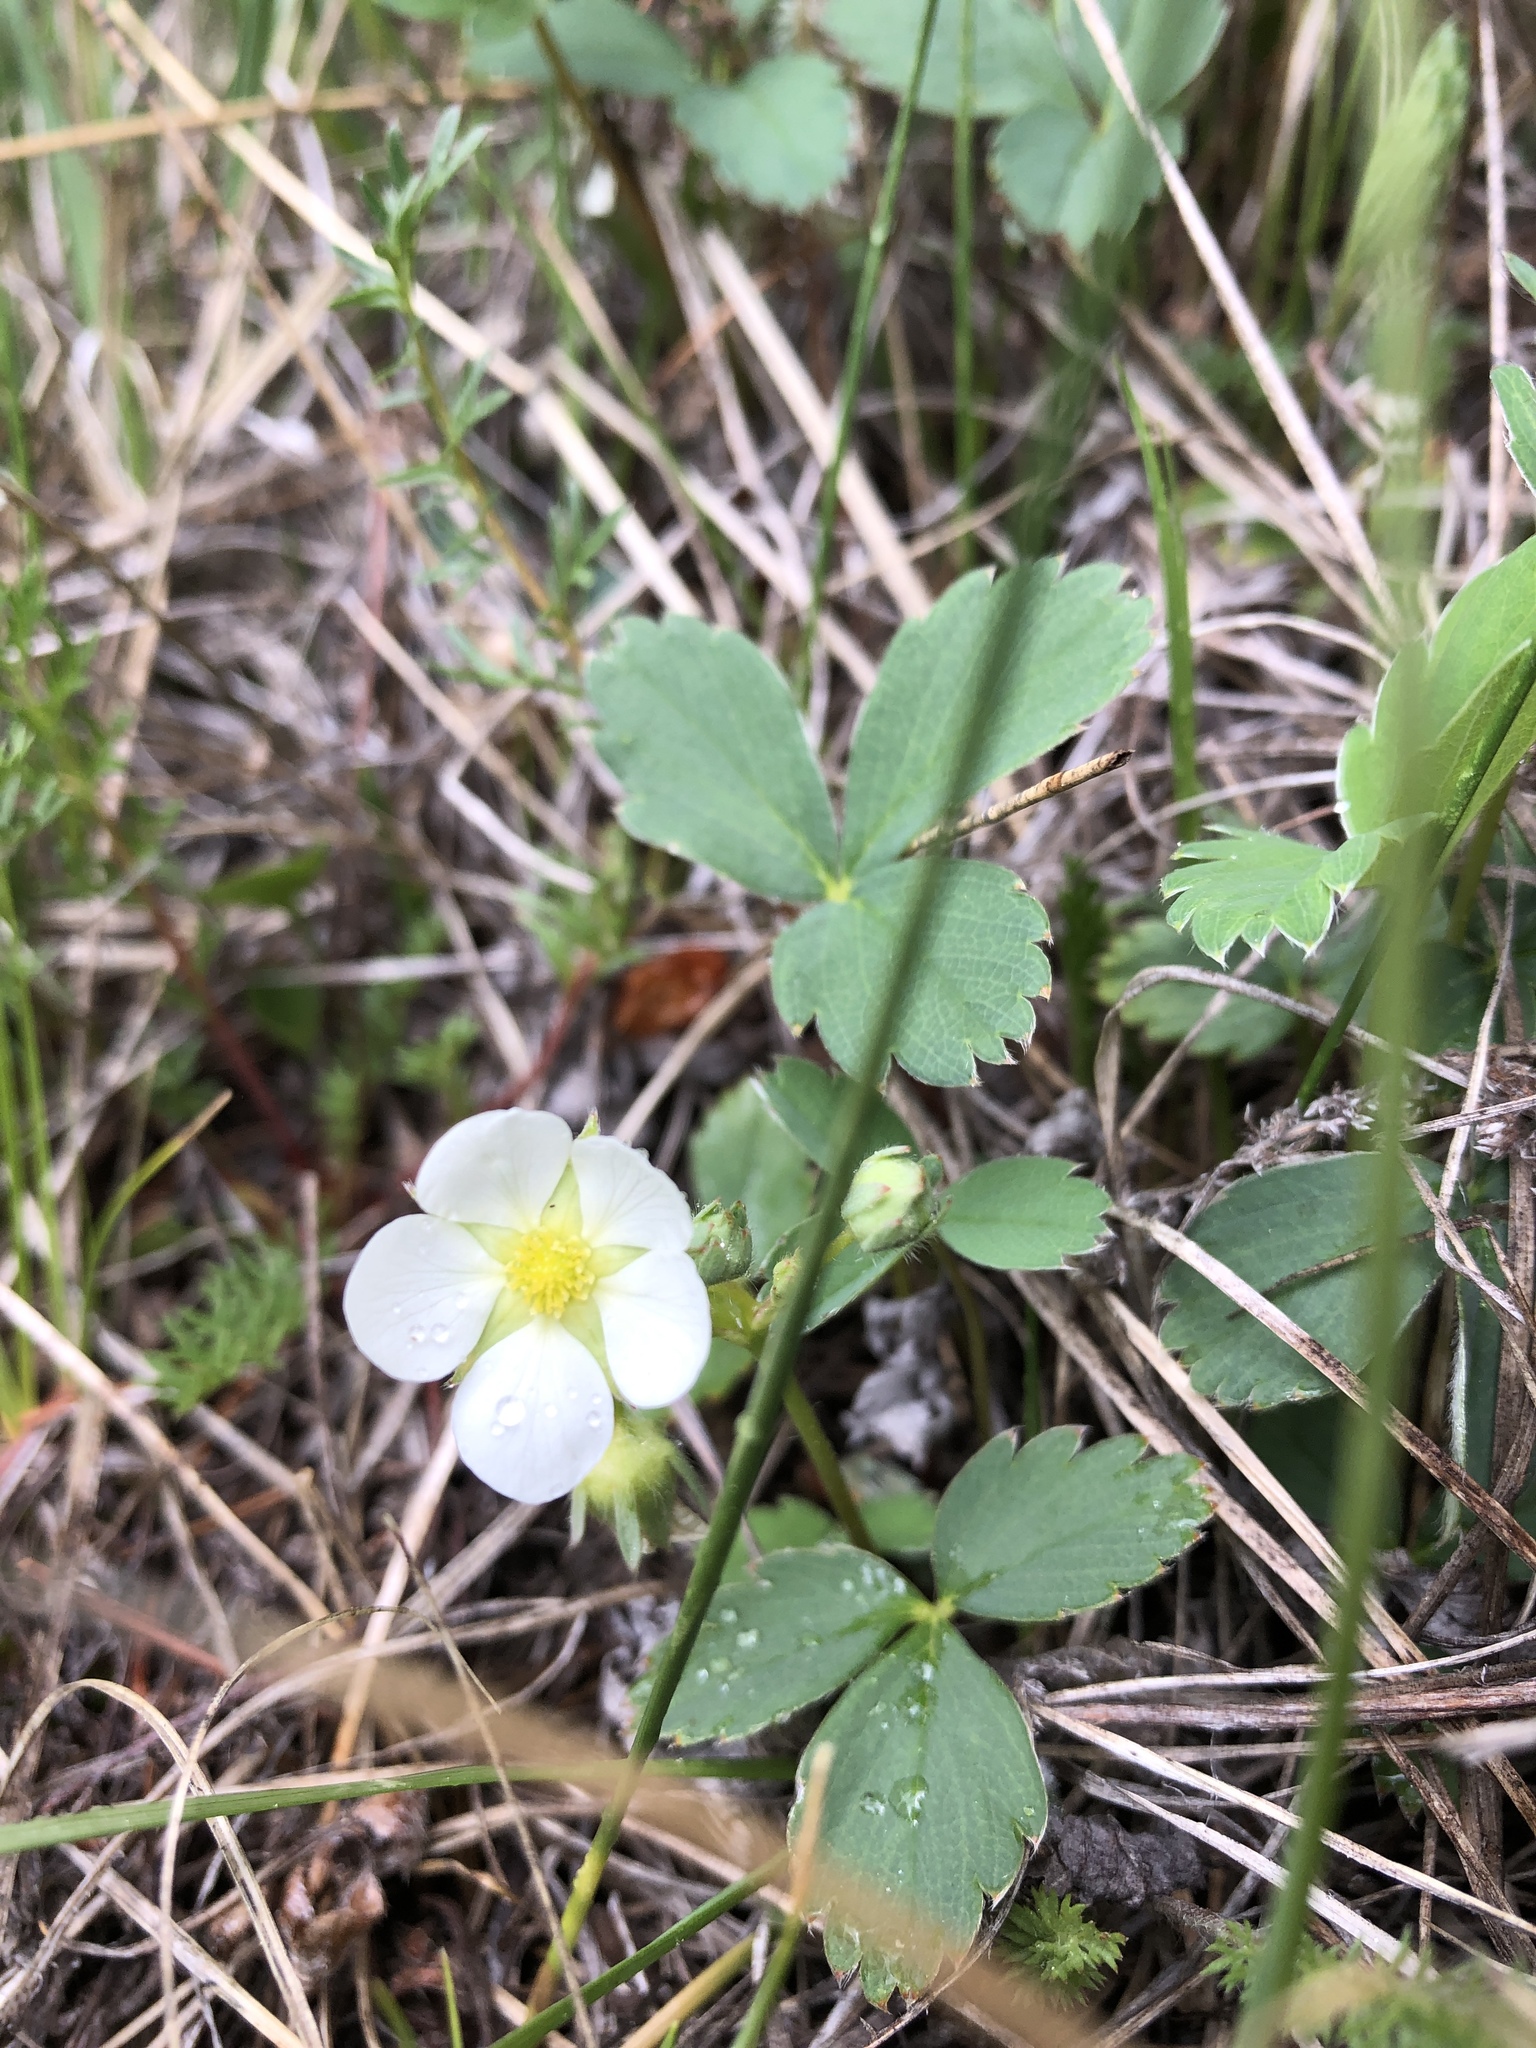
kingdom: Plantae
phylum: Tracheophyta
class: Magnoliopsida
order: Rosales
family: Rosaceae
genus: Fragaria
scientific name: Fragaria virginiana
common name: Thickleaved wild strawberry
